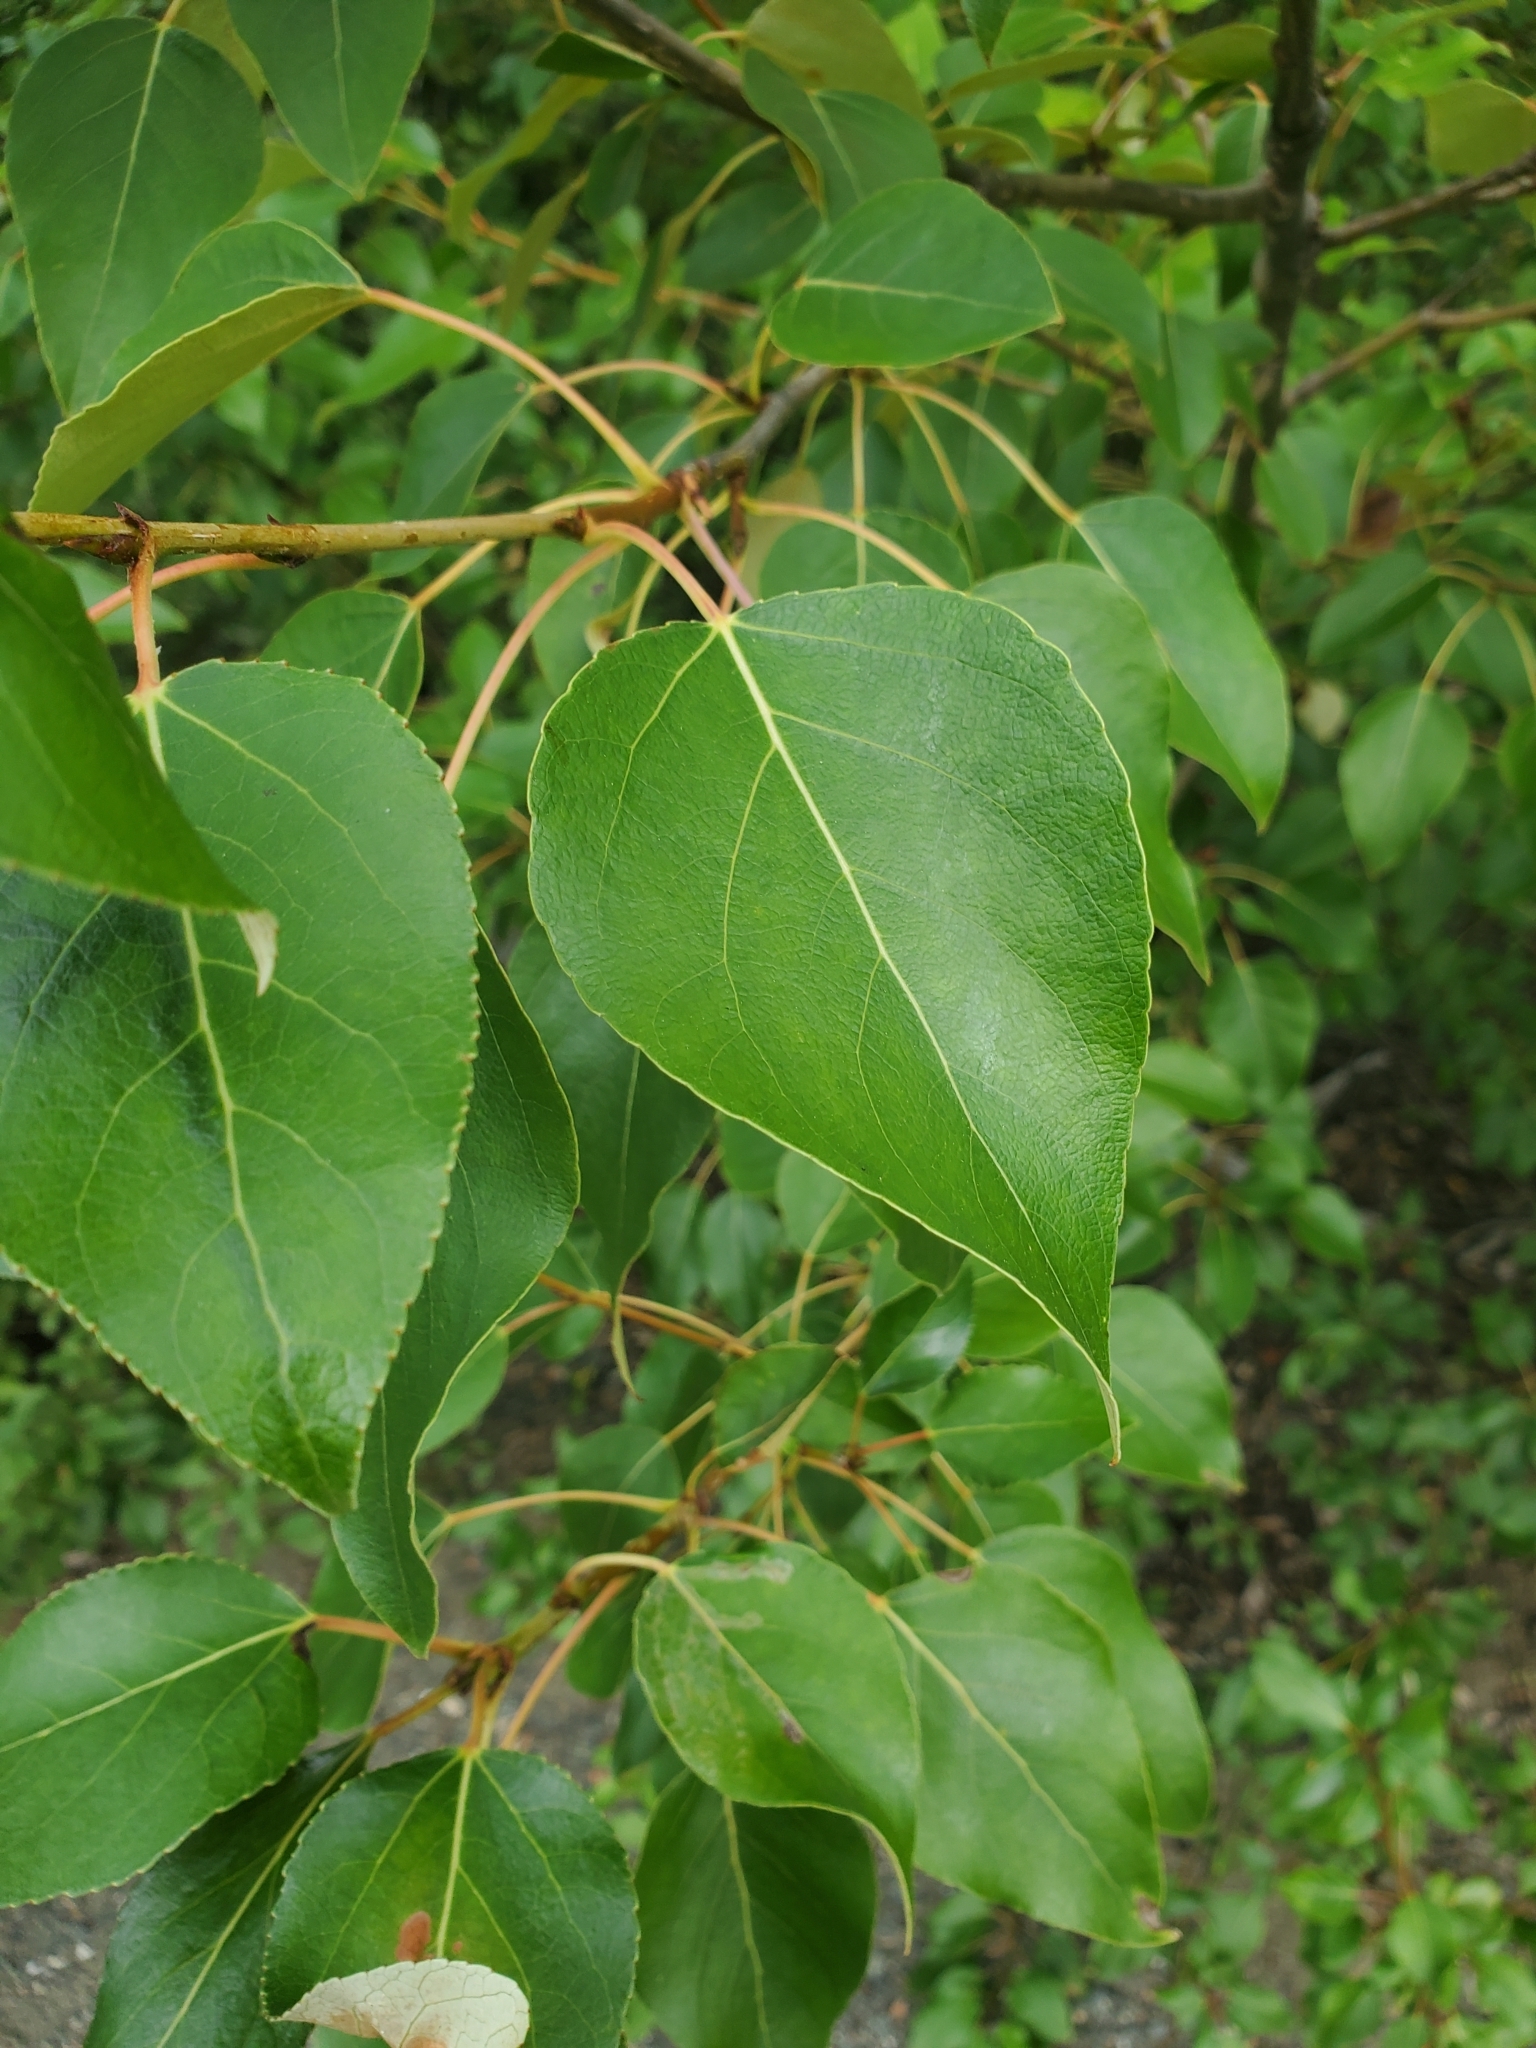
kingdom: Plantae
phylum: Tracheophyta
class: Magnoliopsida
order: Malpighiales
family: Salicaceae
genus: Populus
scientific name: Populus trichocarpa
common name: Black cottonwood
